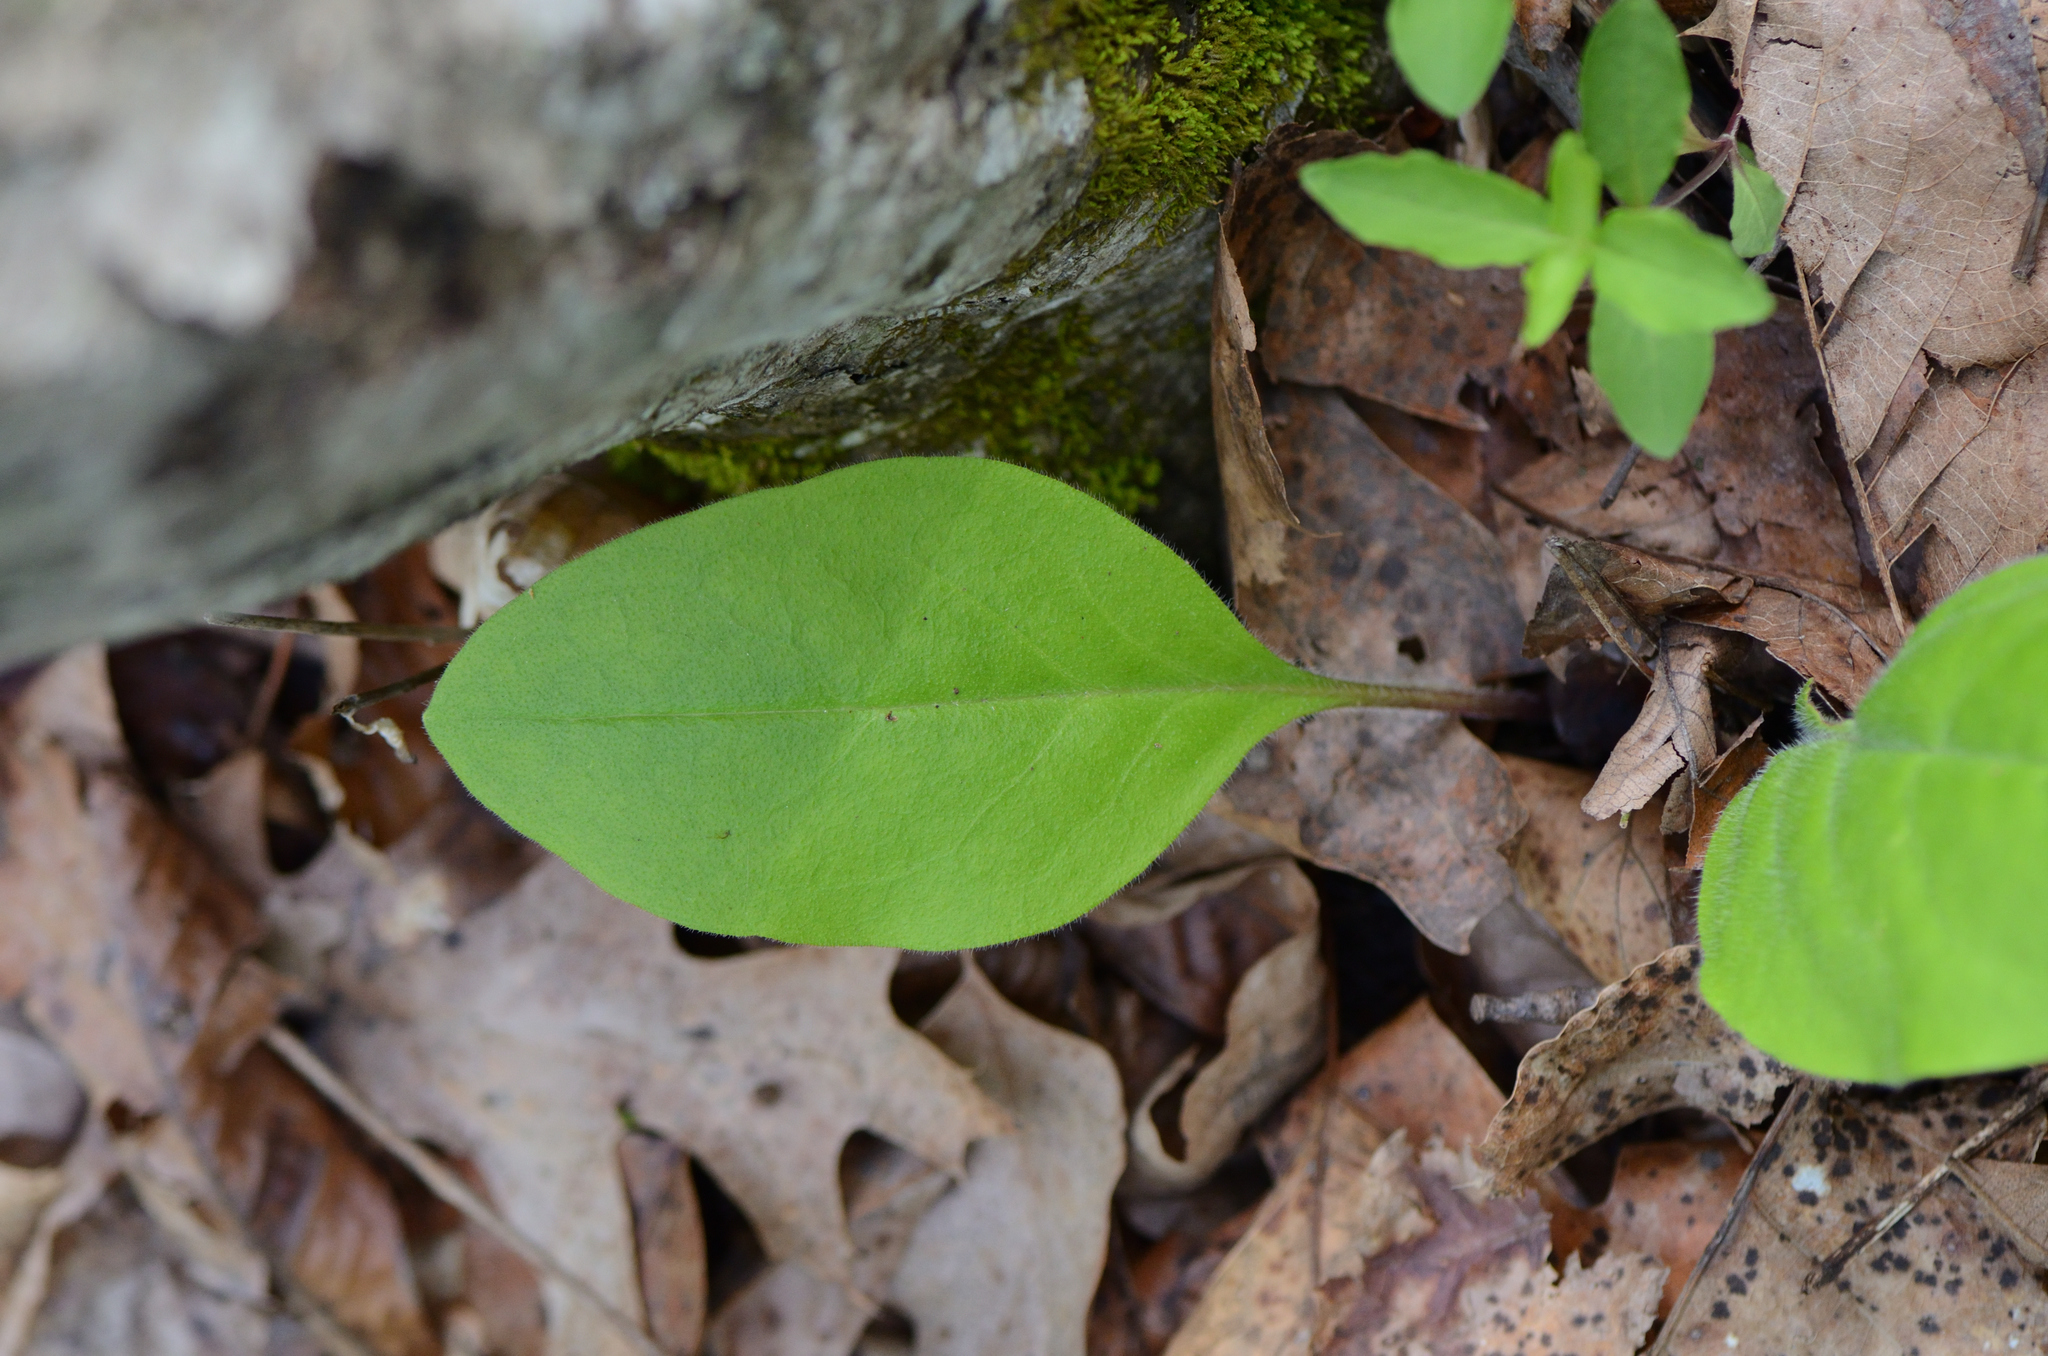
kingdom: Plantae
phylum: Tracheophyta
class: Magnoliopsida
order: Boraginales
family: Boraginaceae
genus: Andersonglossum
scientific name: Andersonglossum virginianum
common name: Wild comfrey
